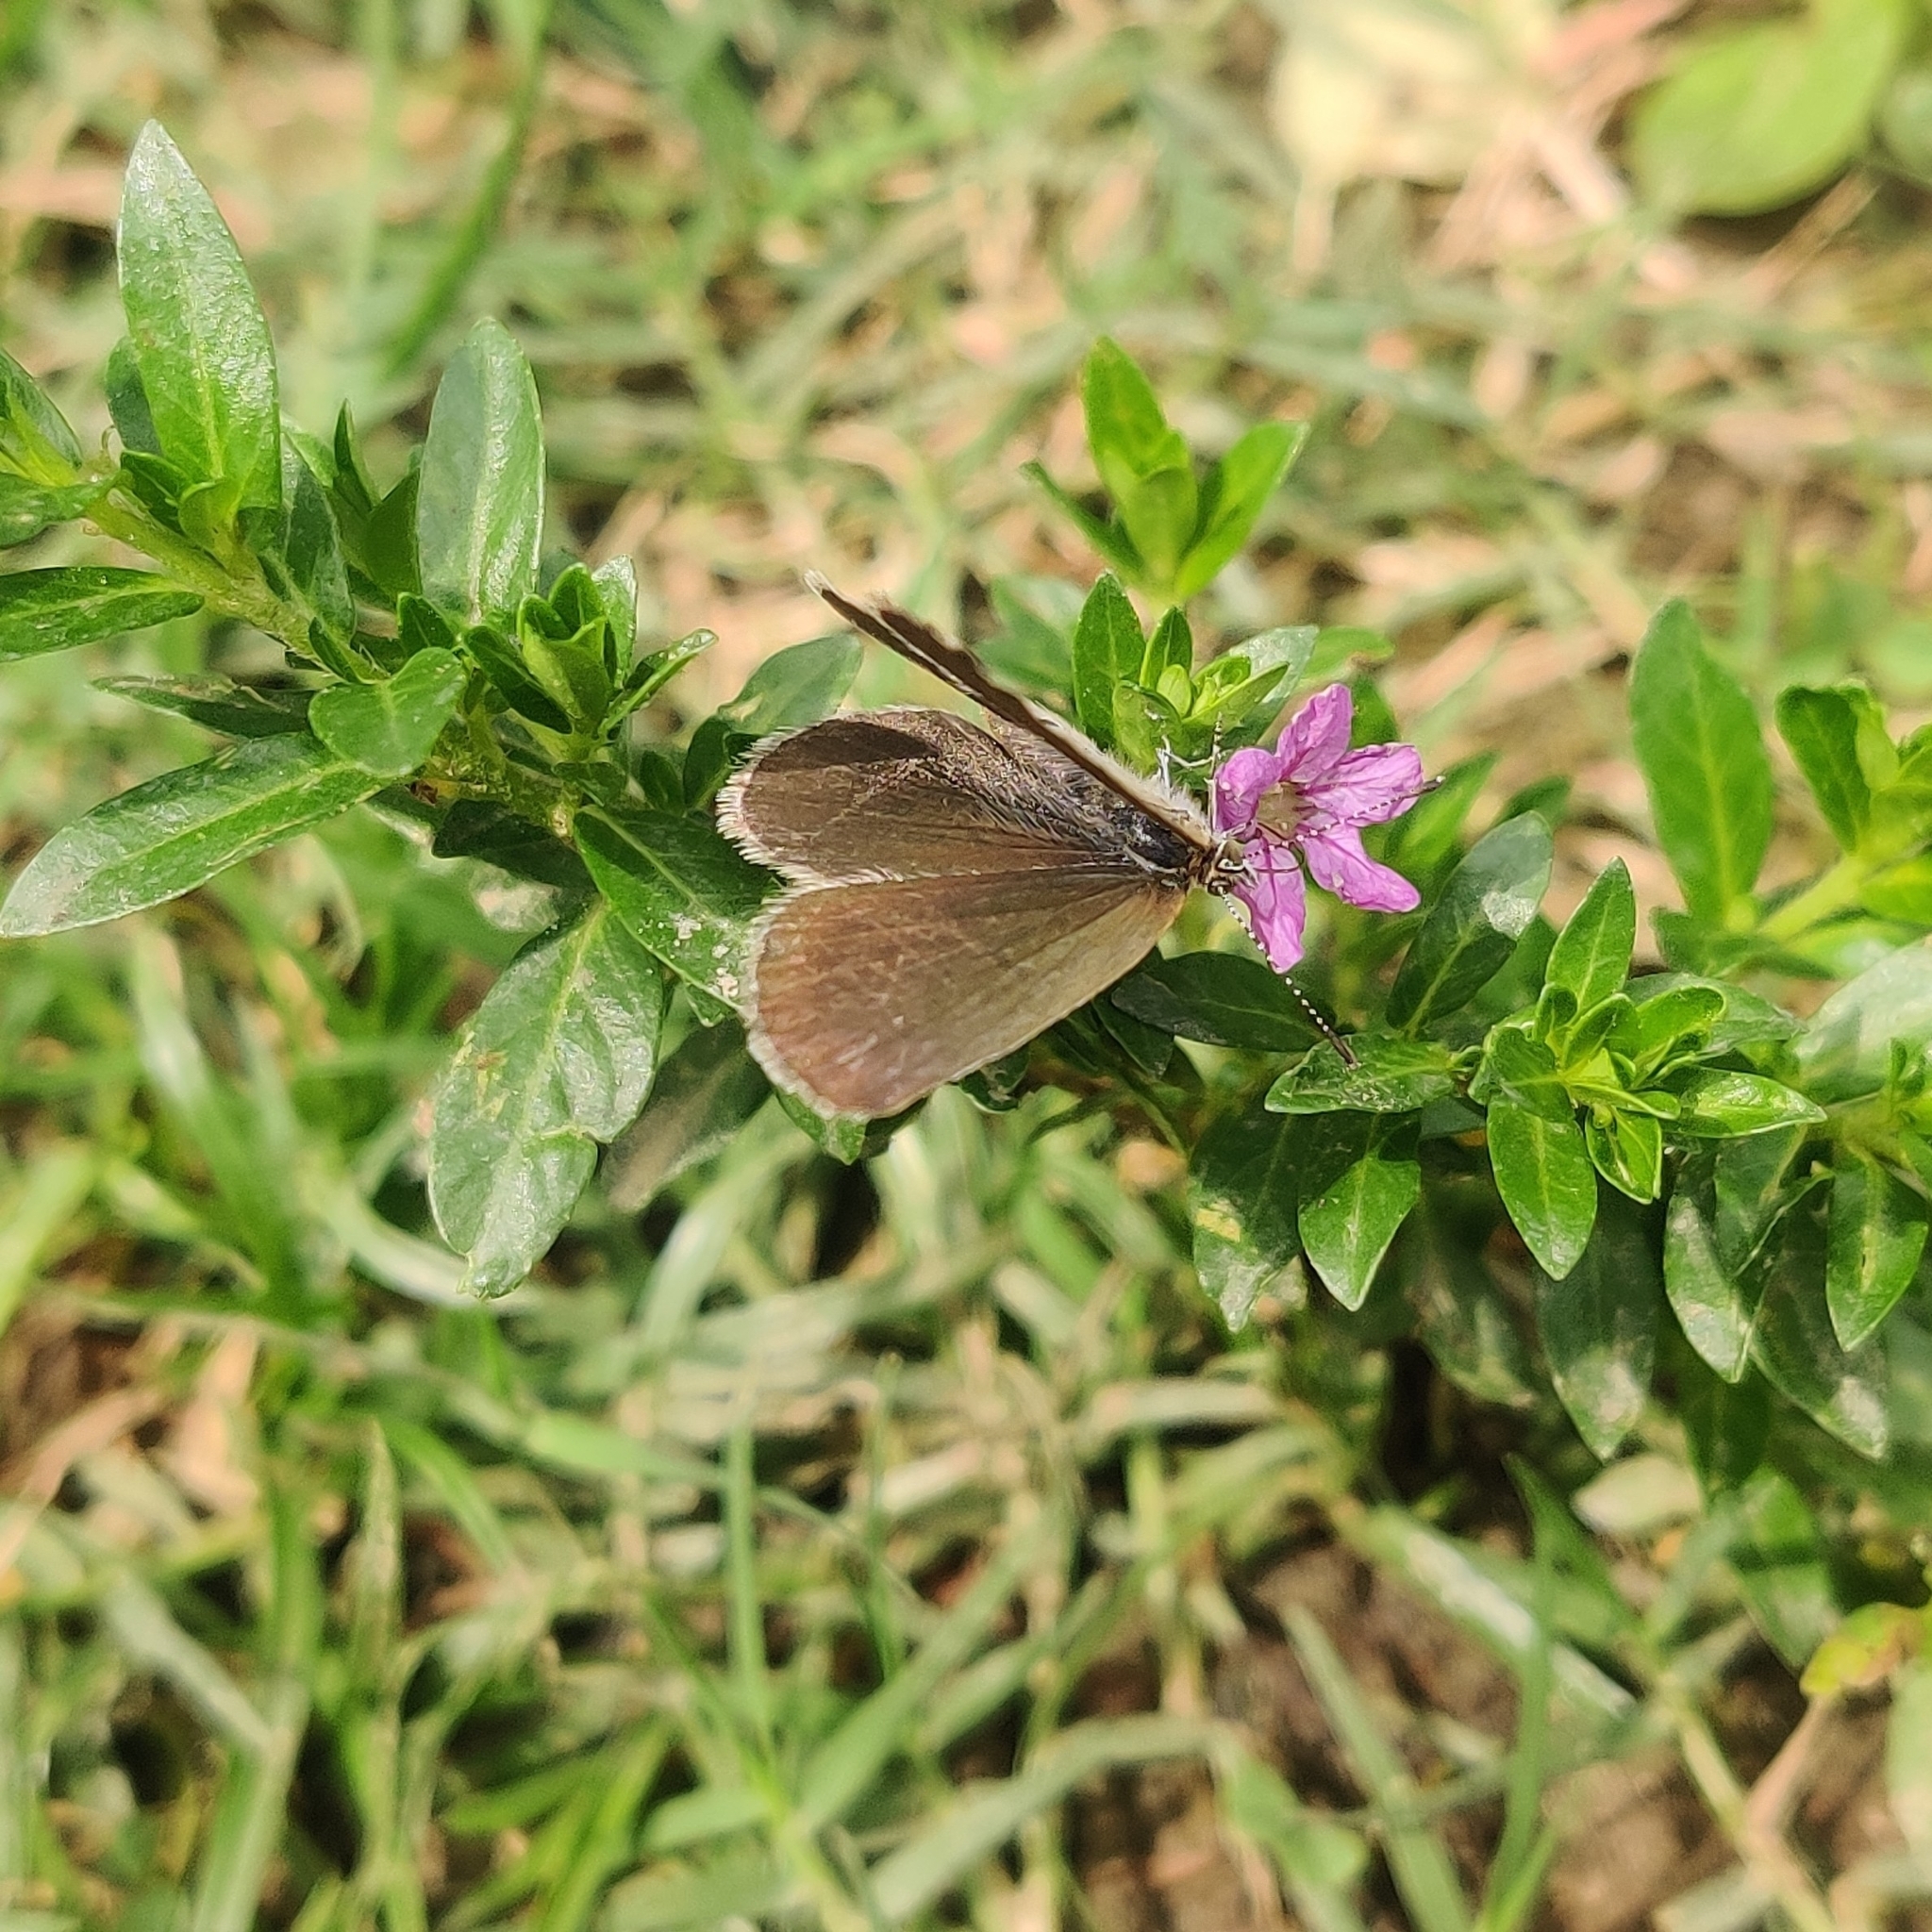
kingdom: Animalia
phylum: Arthropoda
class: Insecta
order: Lepidoptera
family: Lycaenidae
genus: Pseudozizeeria
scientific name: Pseudozizeeria maha
